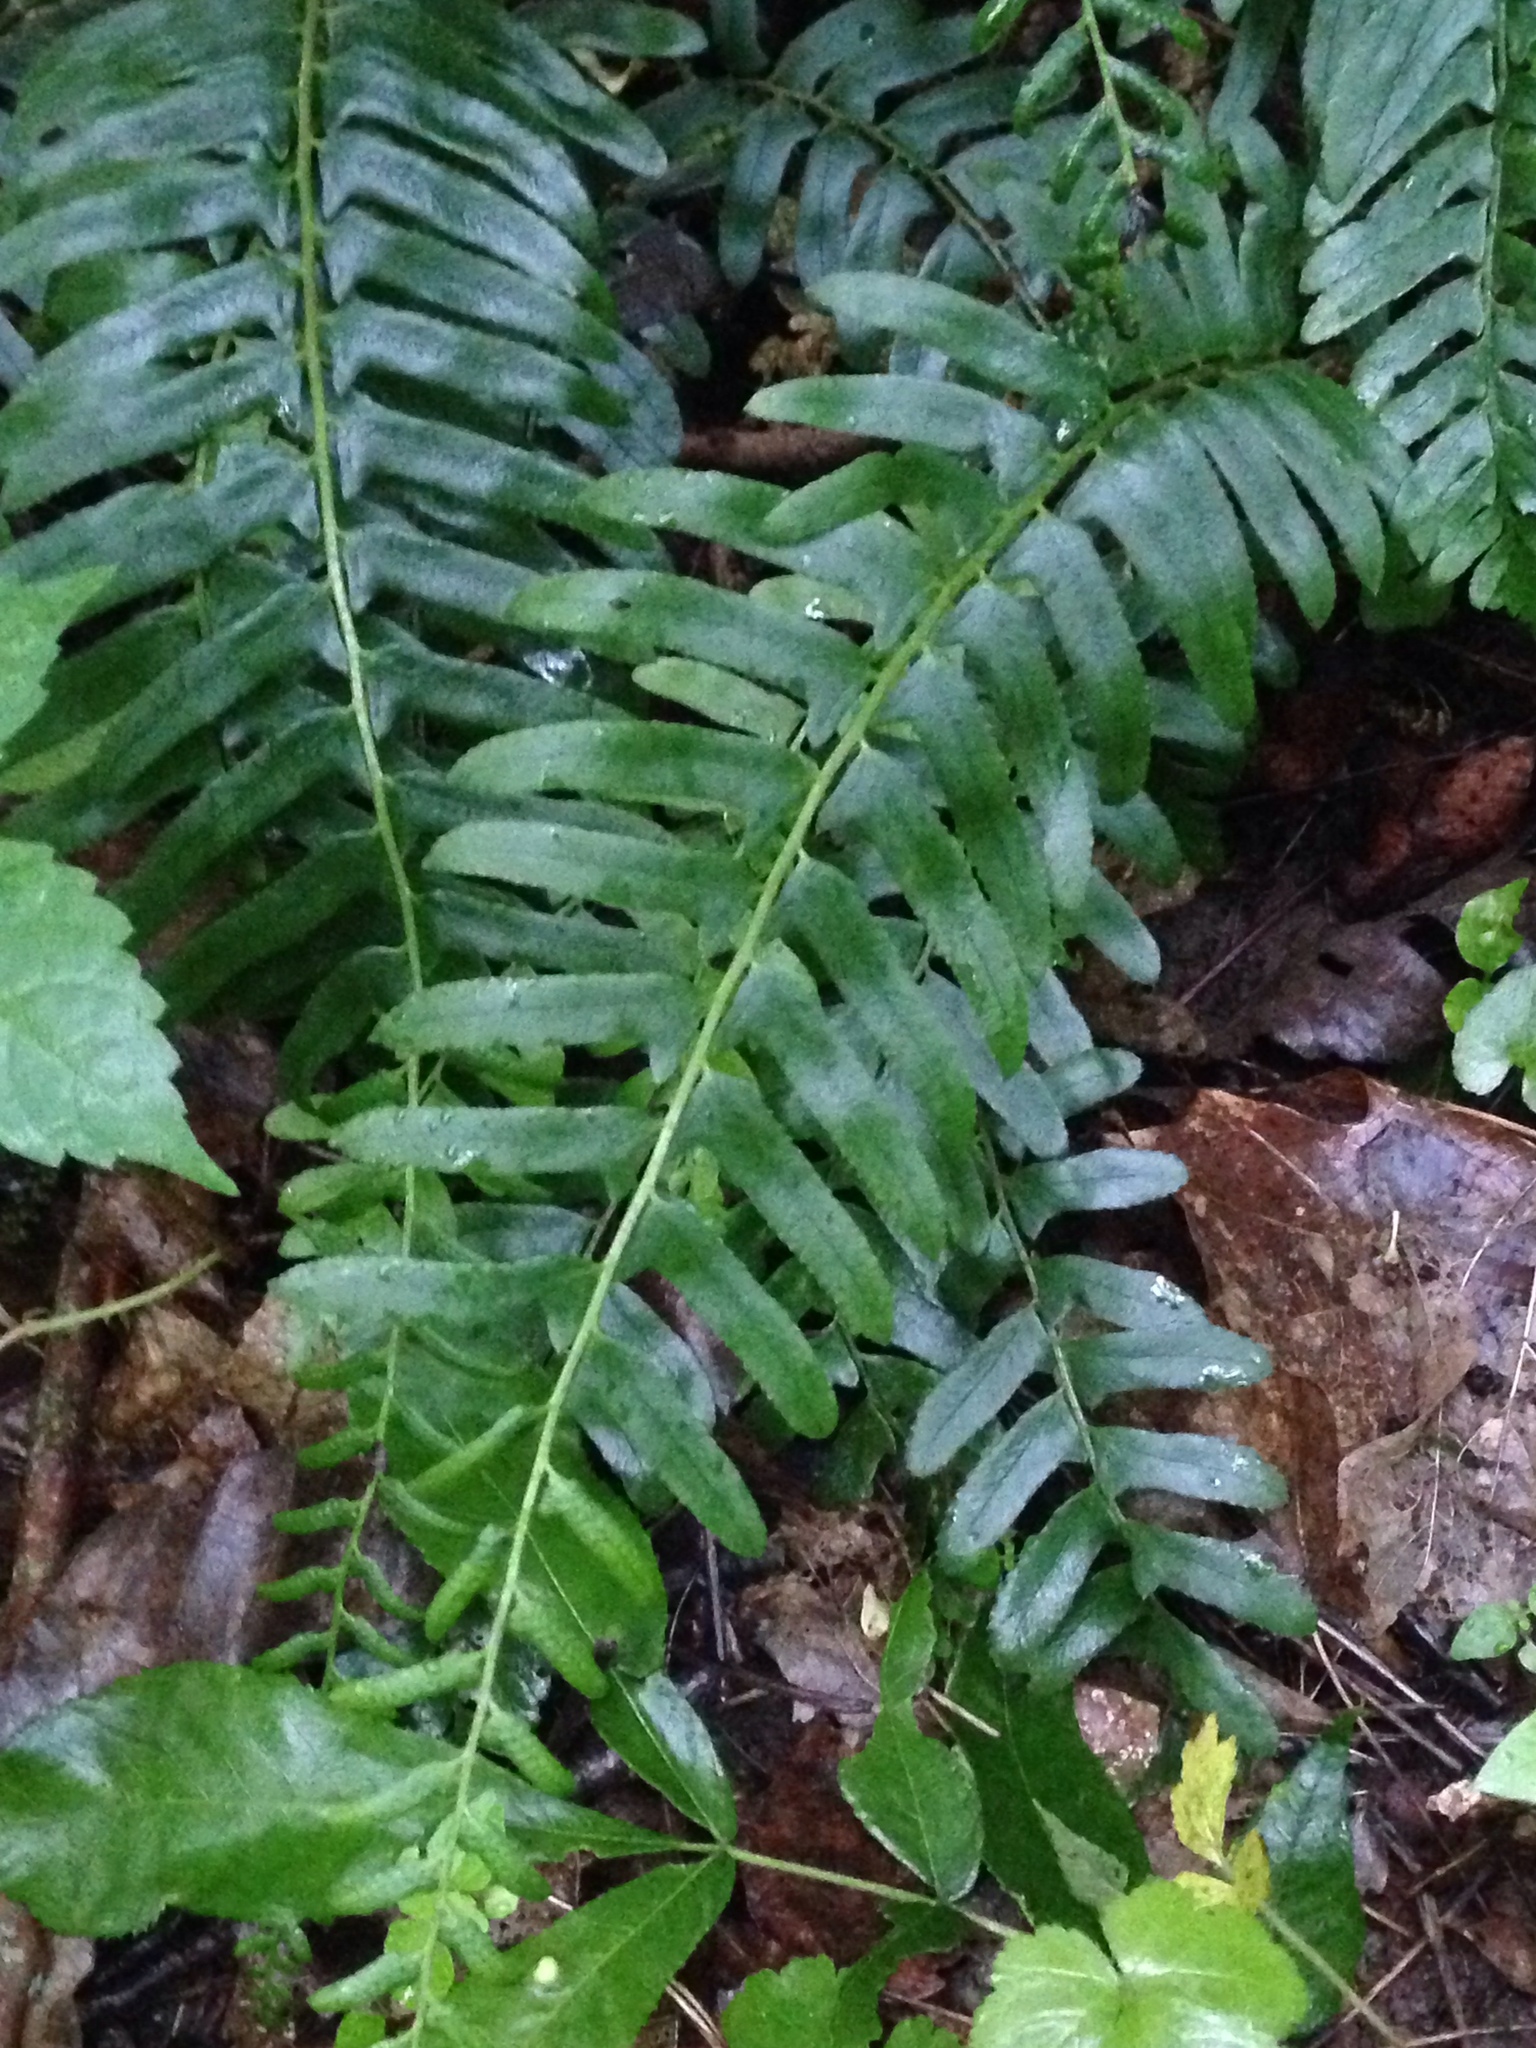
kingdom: Plantae
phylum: Tracheophyta
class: Polypodiopsida
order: Polypodiales
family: Dryopteridaceae
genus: Polystichum
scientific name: Polystichum acrostichoides
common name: Christmas fern
